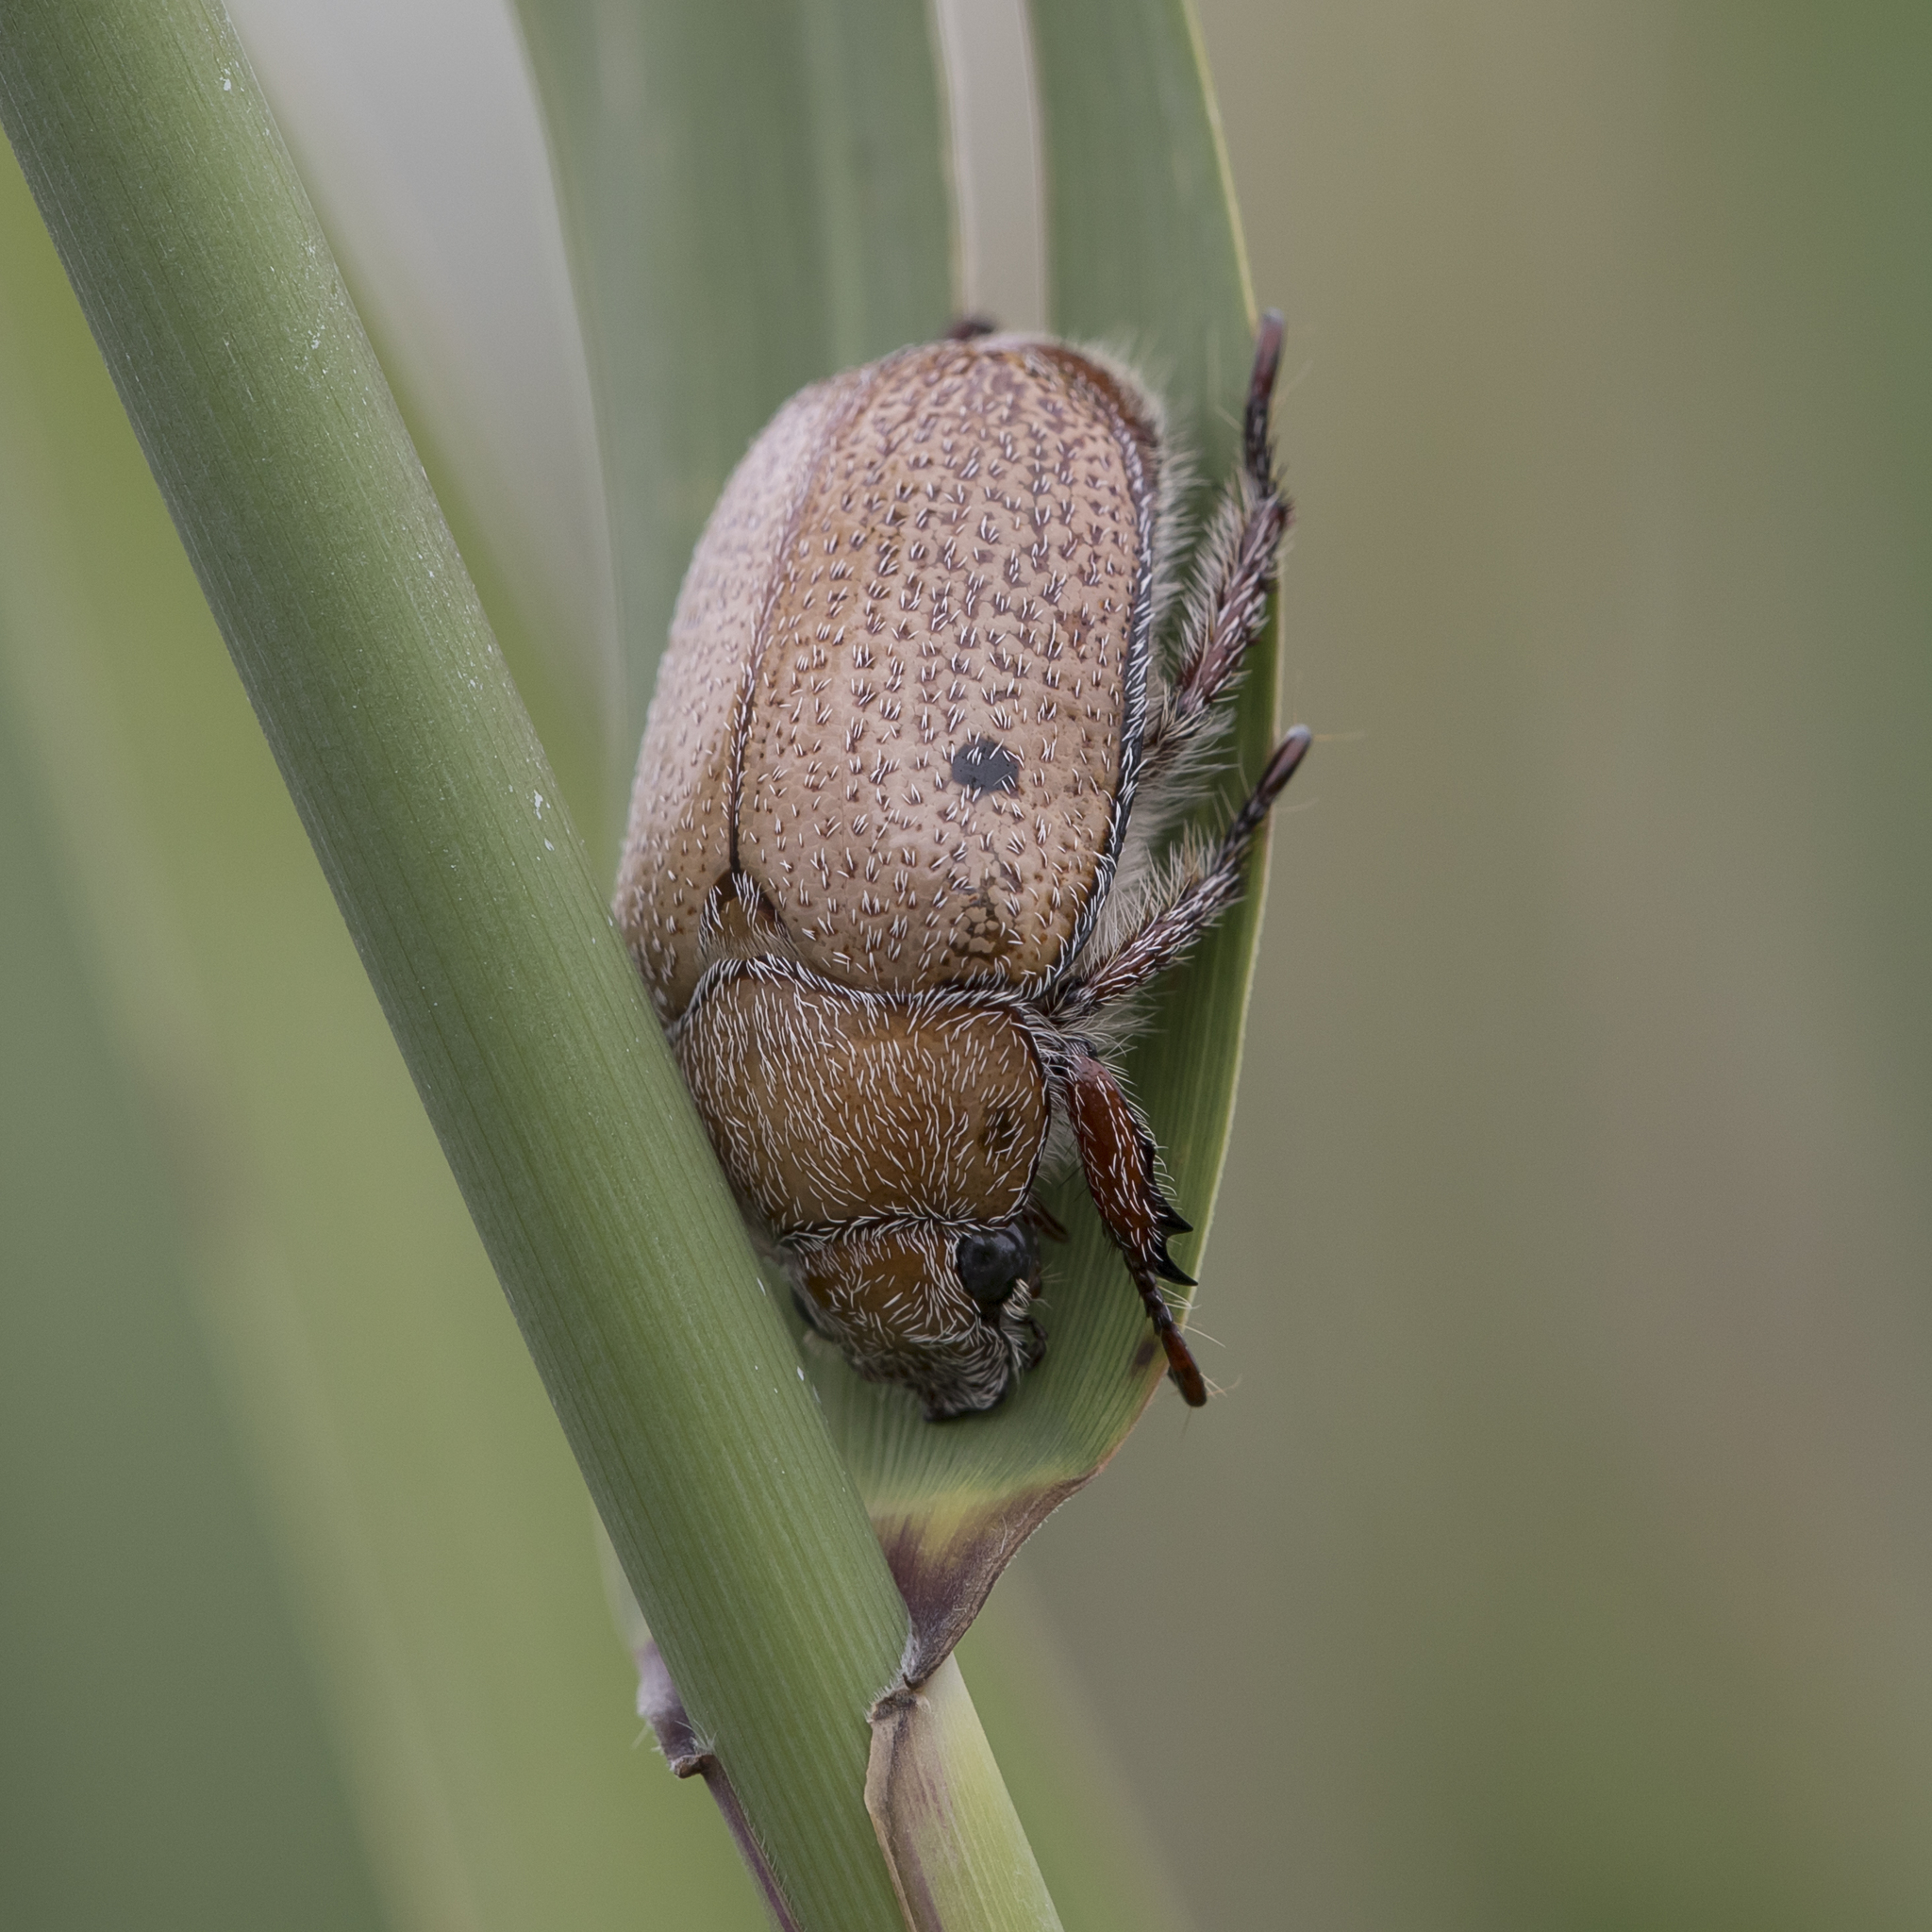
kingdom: Animalia
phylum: Arthropoda
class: Insecta
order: Coleoptera
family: Scarabaeidae
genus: Anoplognathus
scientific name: Anoplognathus velutinus
